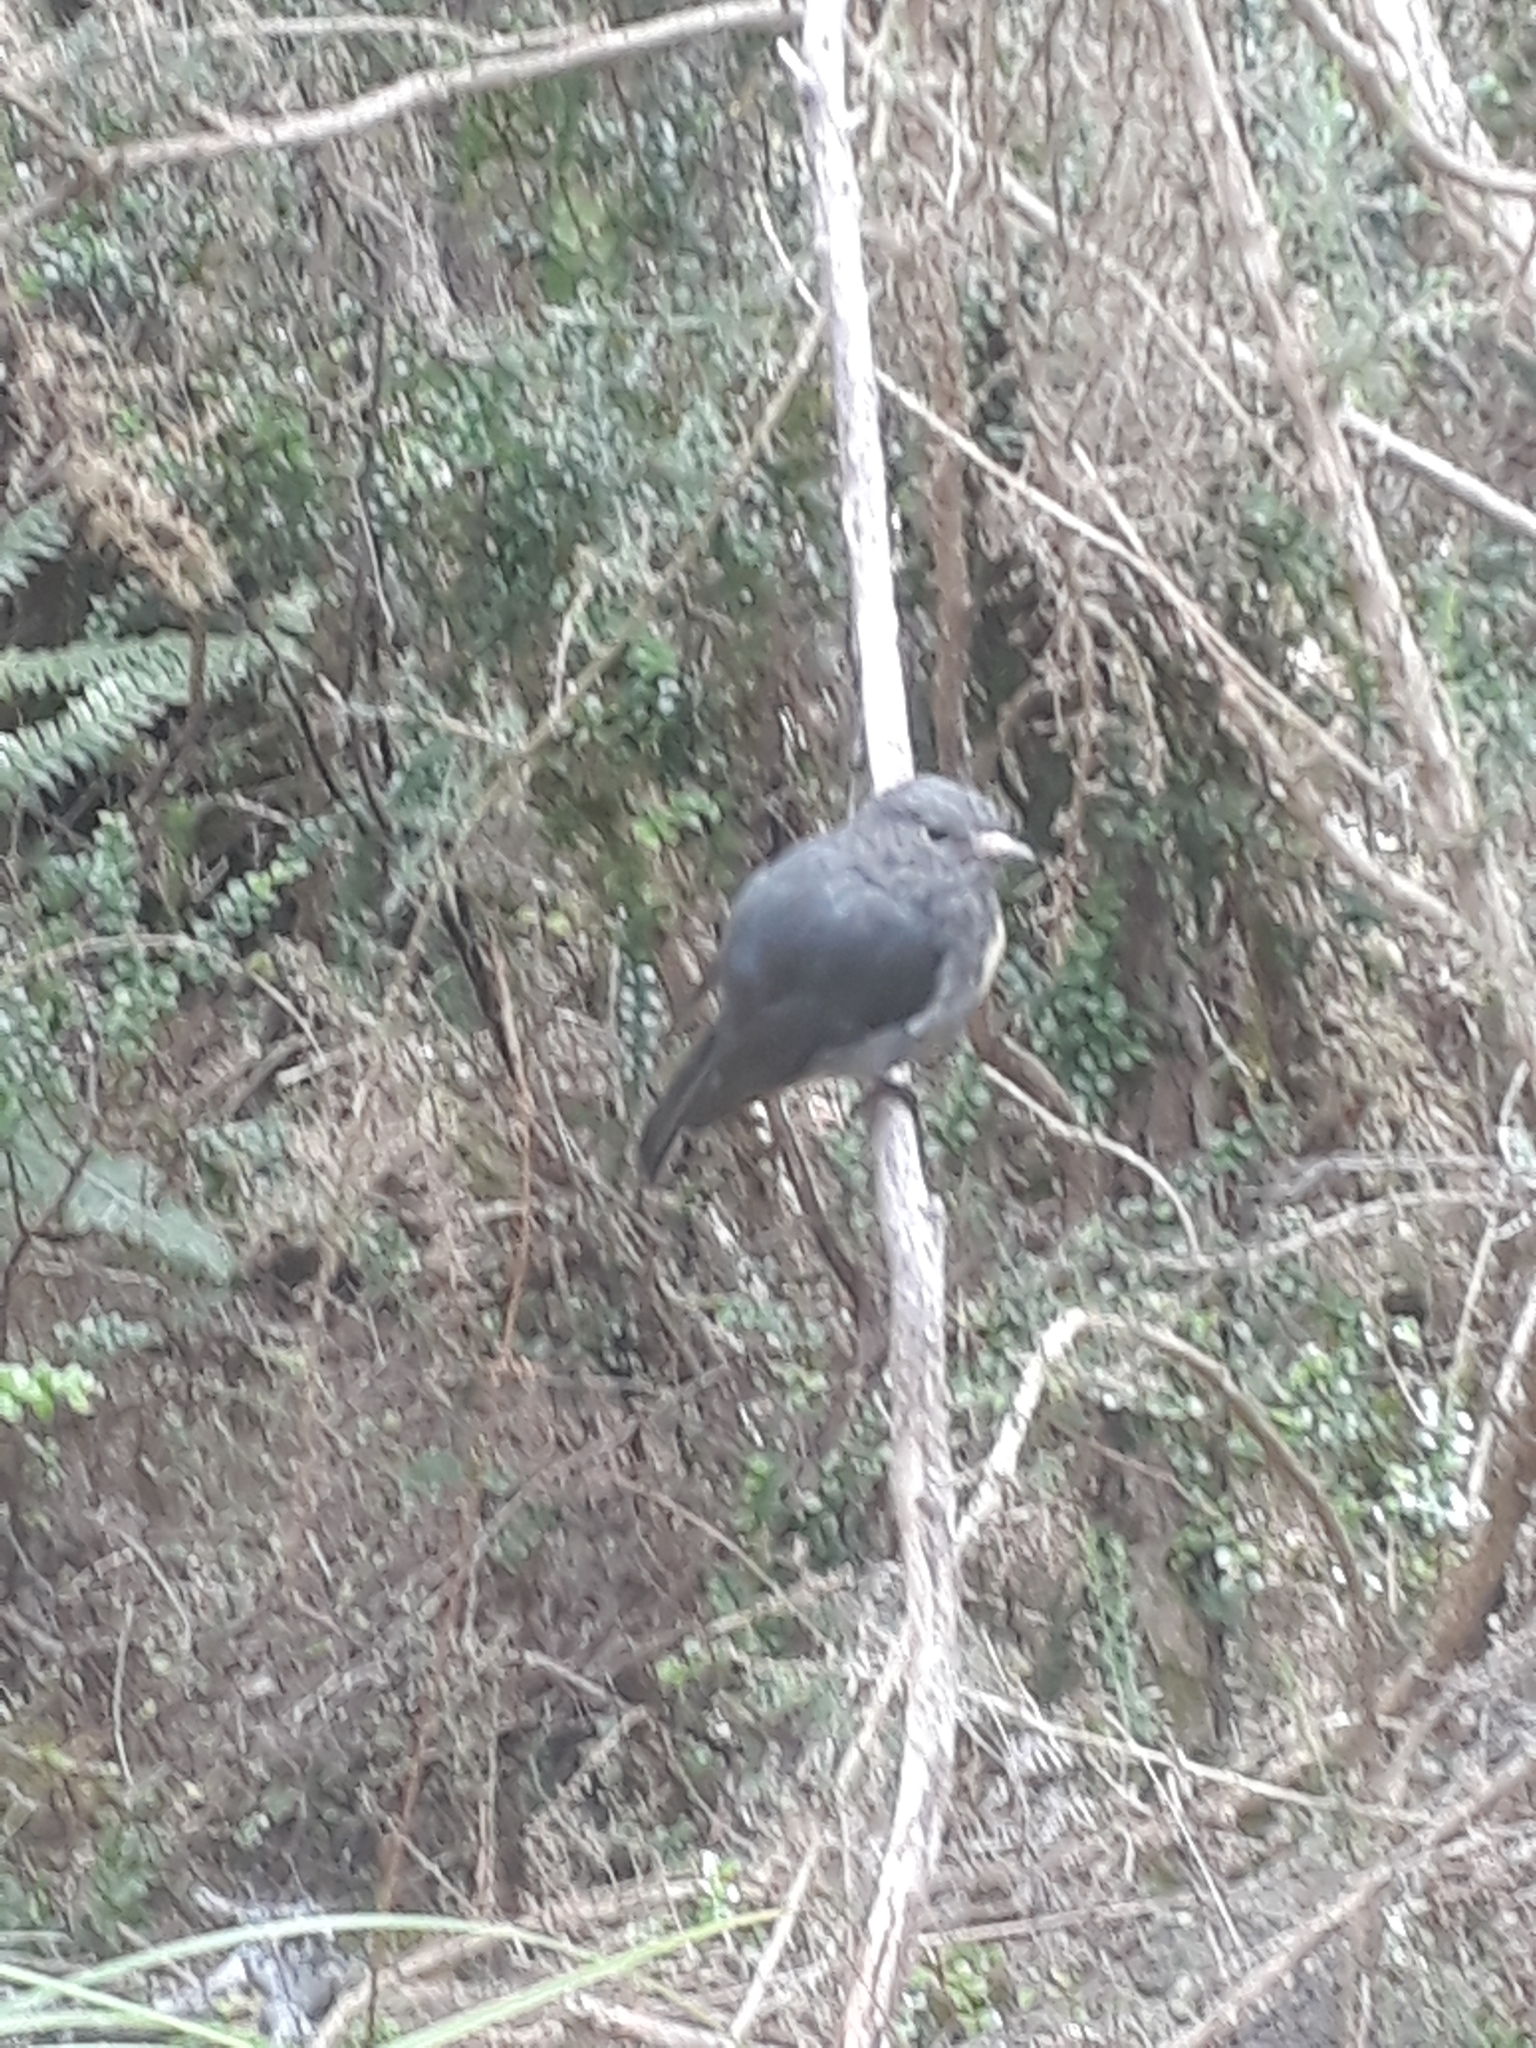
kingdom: Animalia
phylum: Chordata
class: Aves
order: Passeriformes
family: Petroicidae
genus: Petroica
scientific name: Petroica australis
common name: New zealand robin
